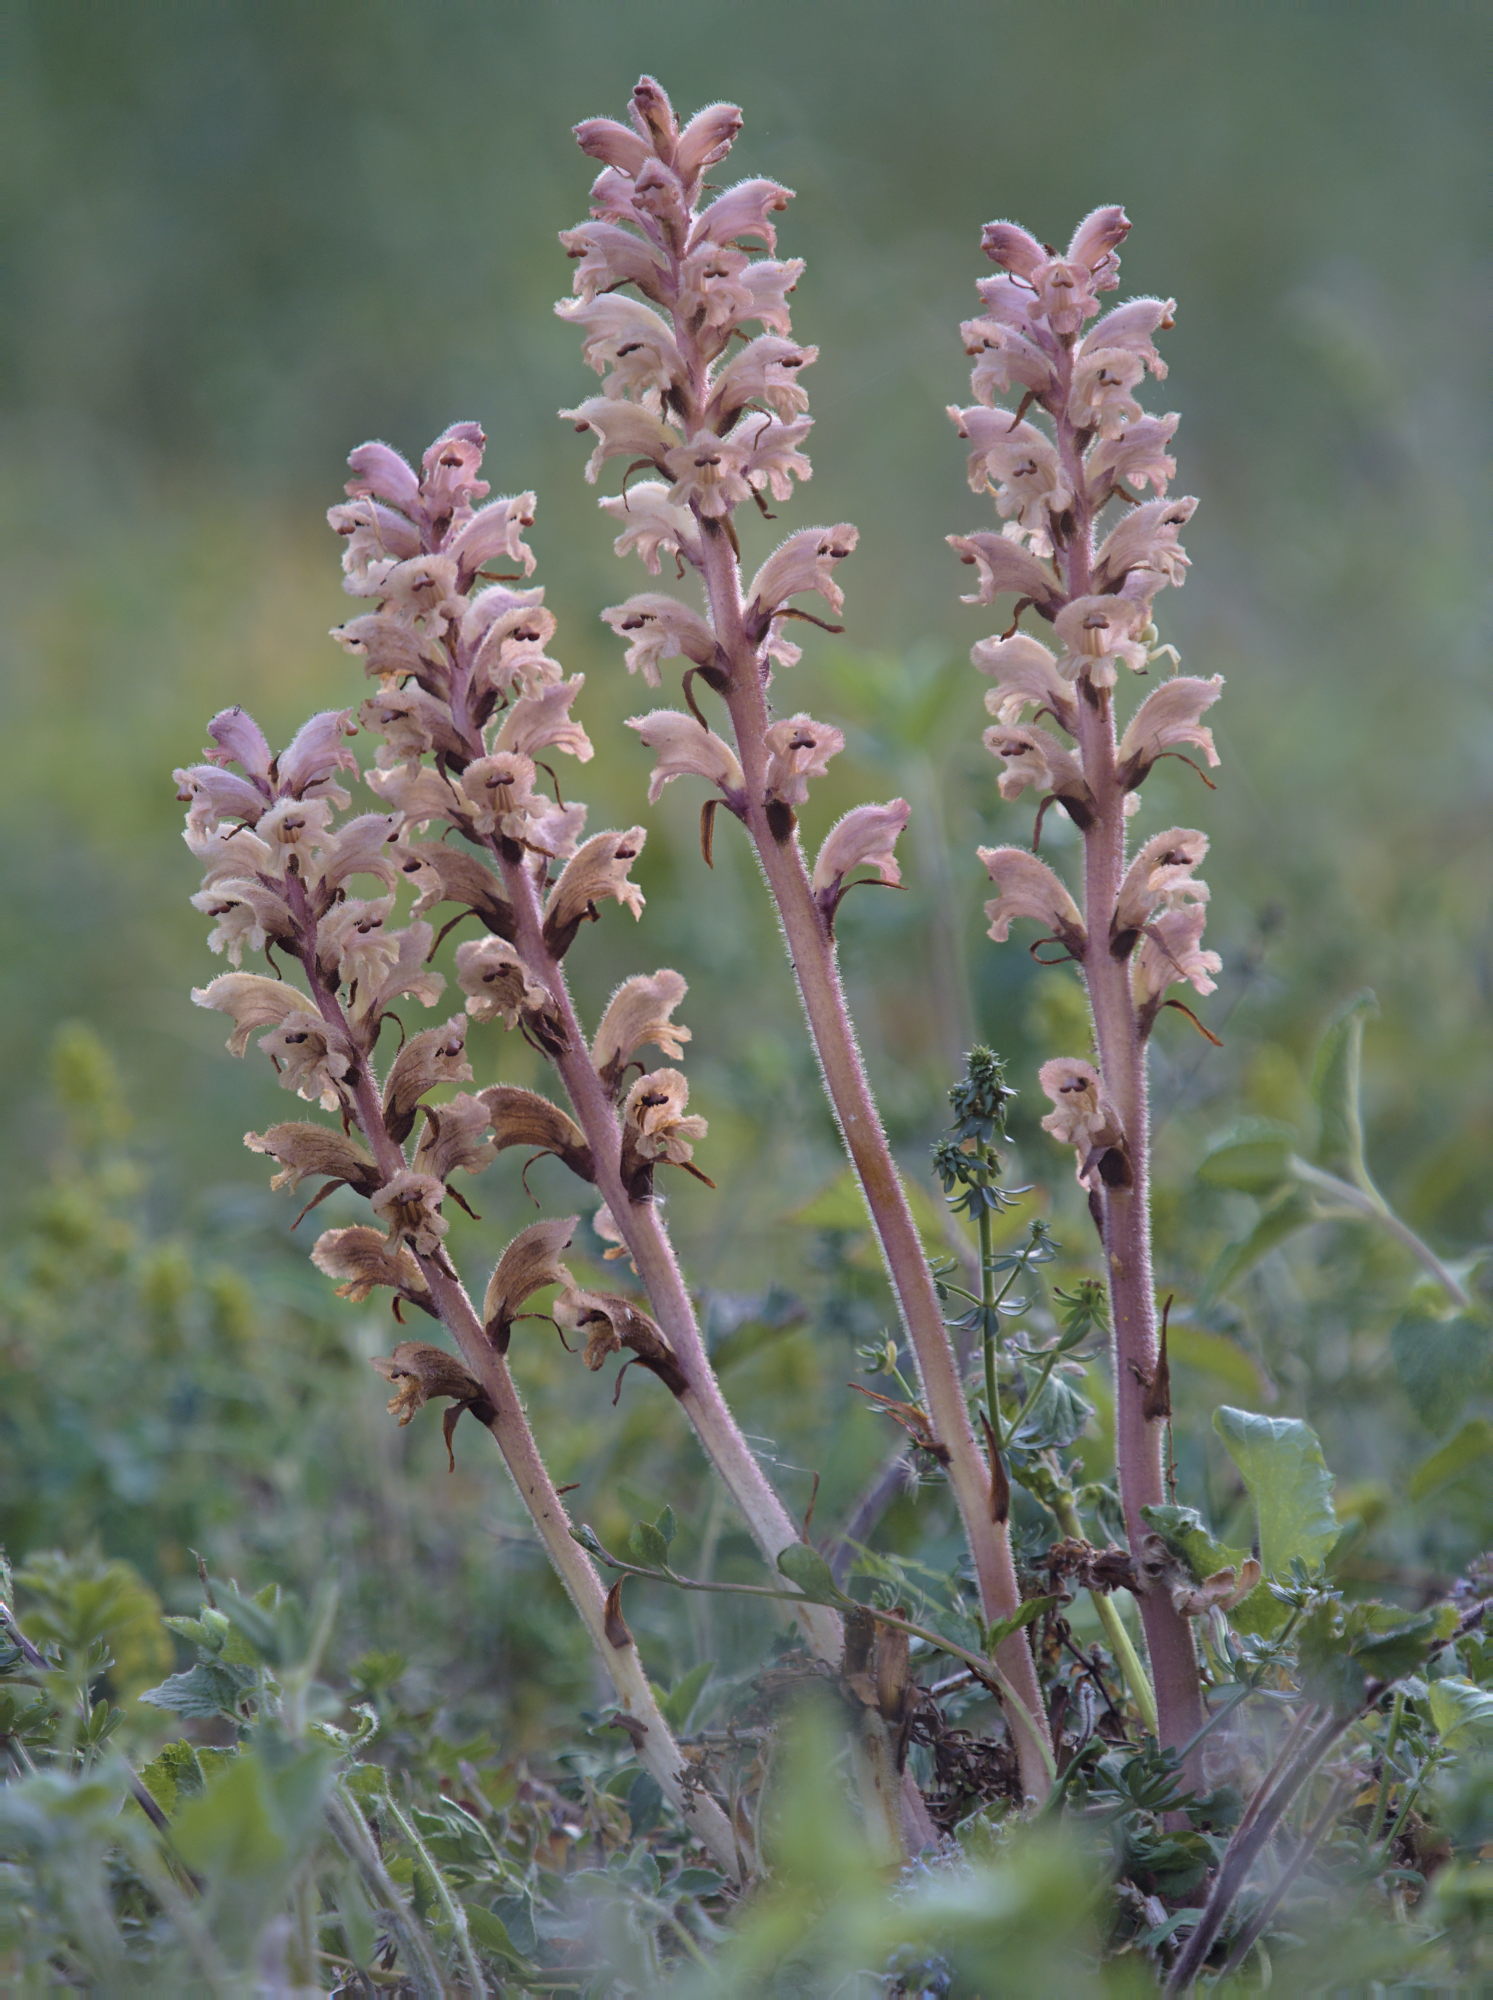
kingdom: Plantae
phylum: Tracheophyta
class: Magnoliopsida
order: Lamiales
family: Orobanchaceae
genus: Orobanche
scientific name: Orobanche caryophyllacea
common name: Bedstraw broomrape
